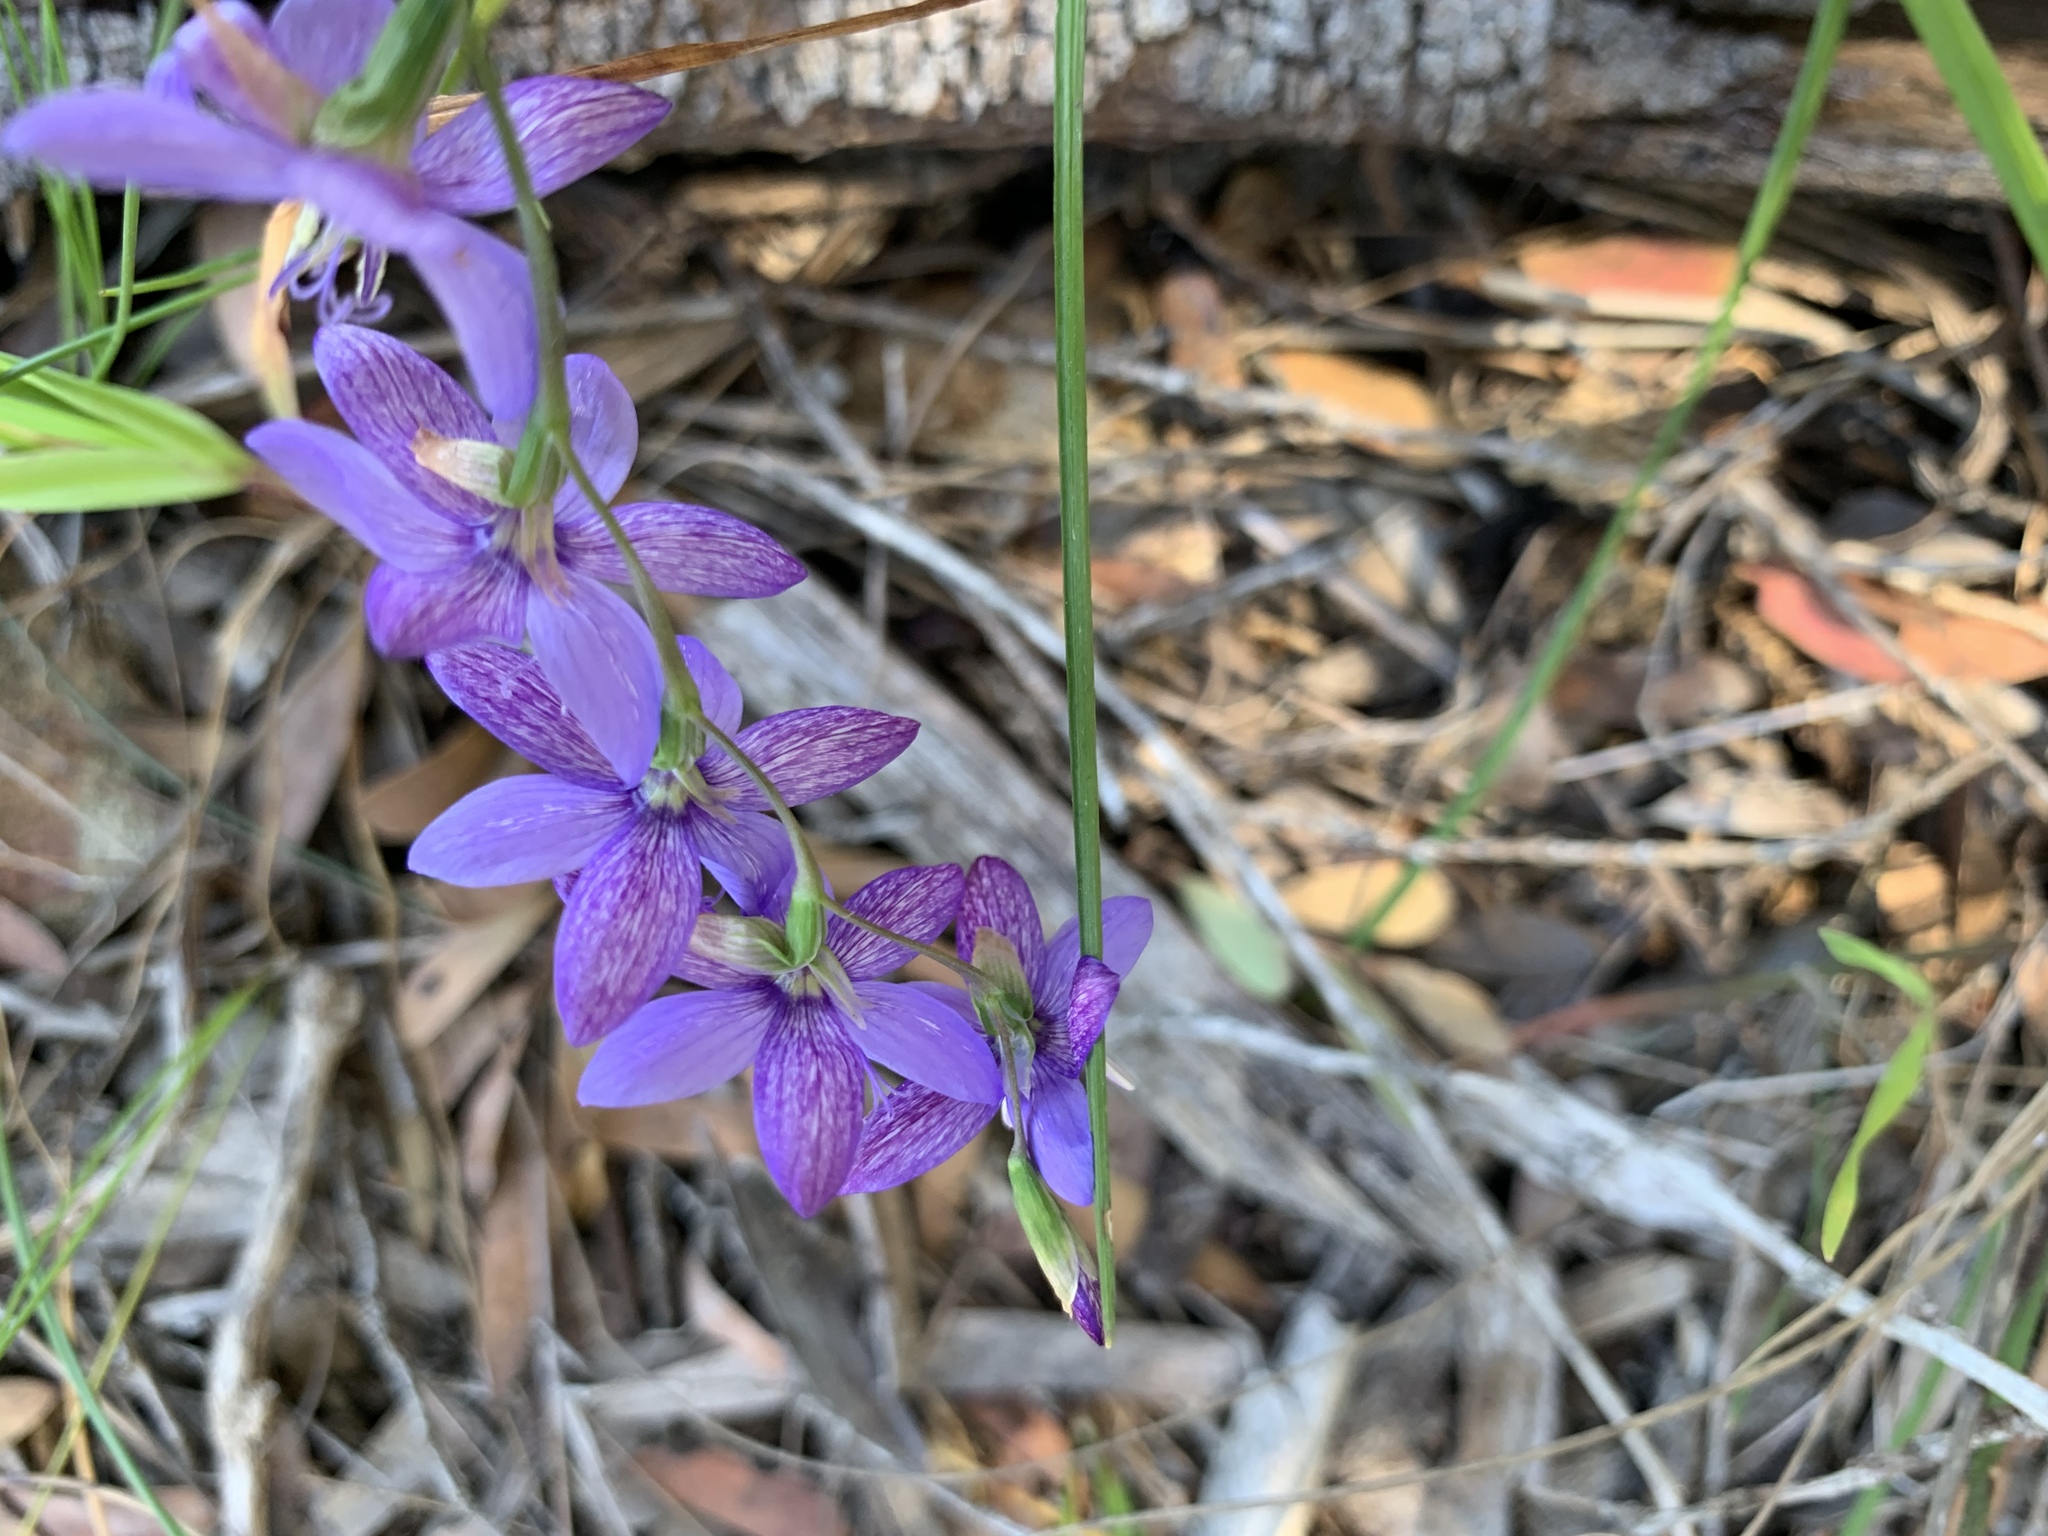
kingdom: Plantae
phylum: Tracheophyta
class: Liliopsida
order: Asparagales
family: Iridaceae
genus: Geissorhiza
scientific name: Geissorhiza aspera
